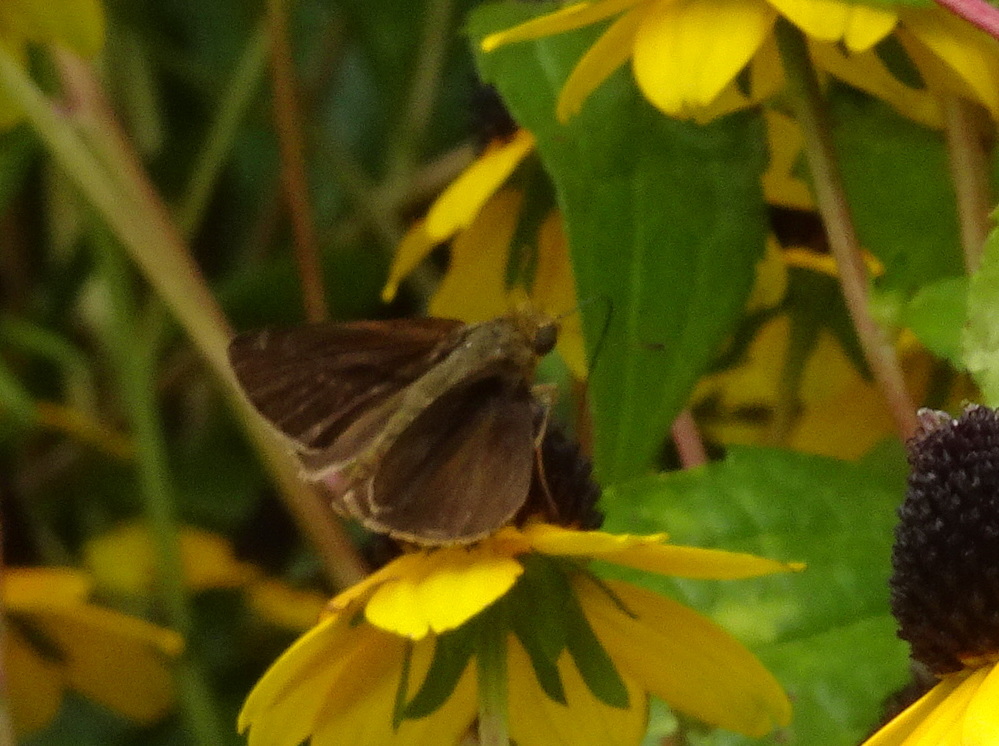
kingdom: Animalia
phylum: Arthropoda
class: Insecta
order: Lepidoptera
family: Hesperiidae
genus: Euphyes
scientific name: Euphyes vestris
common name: Dun skipper
